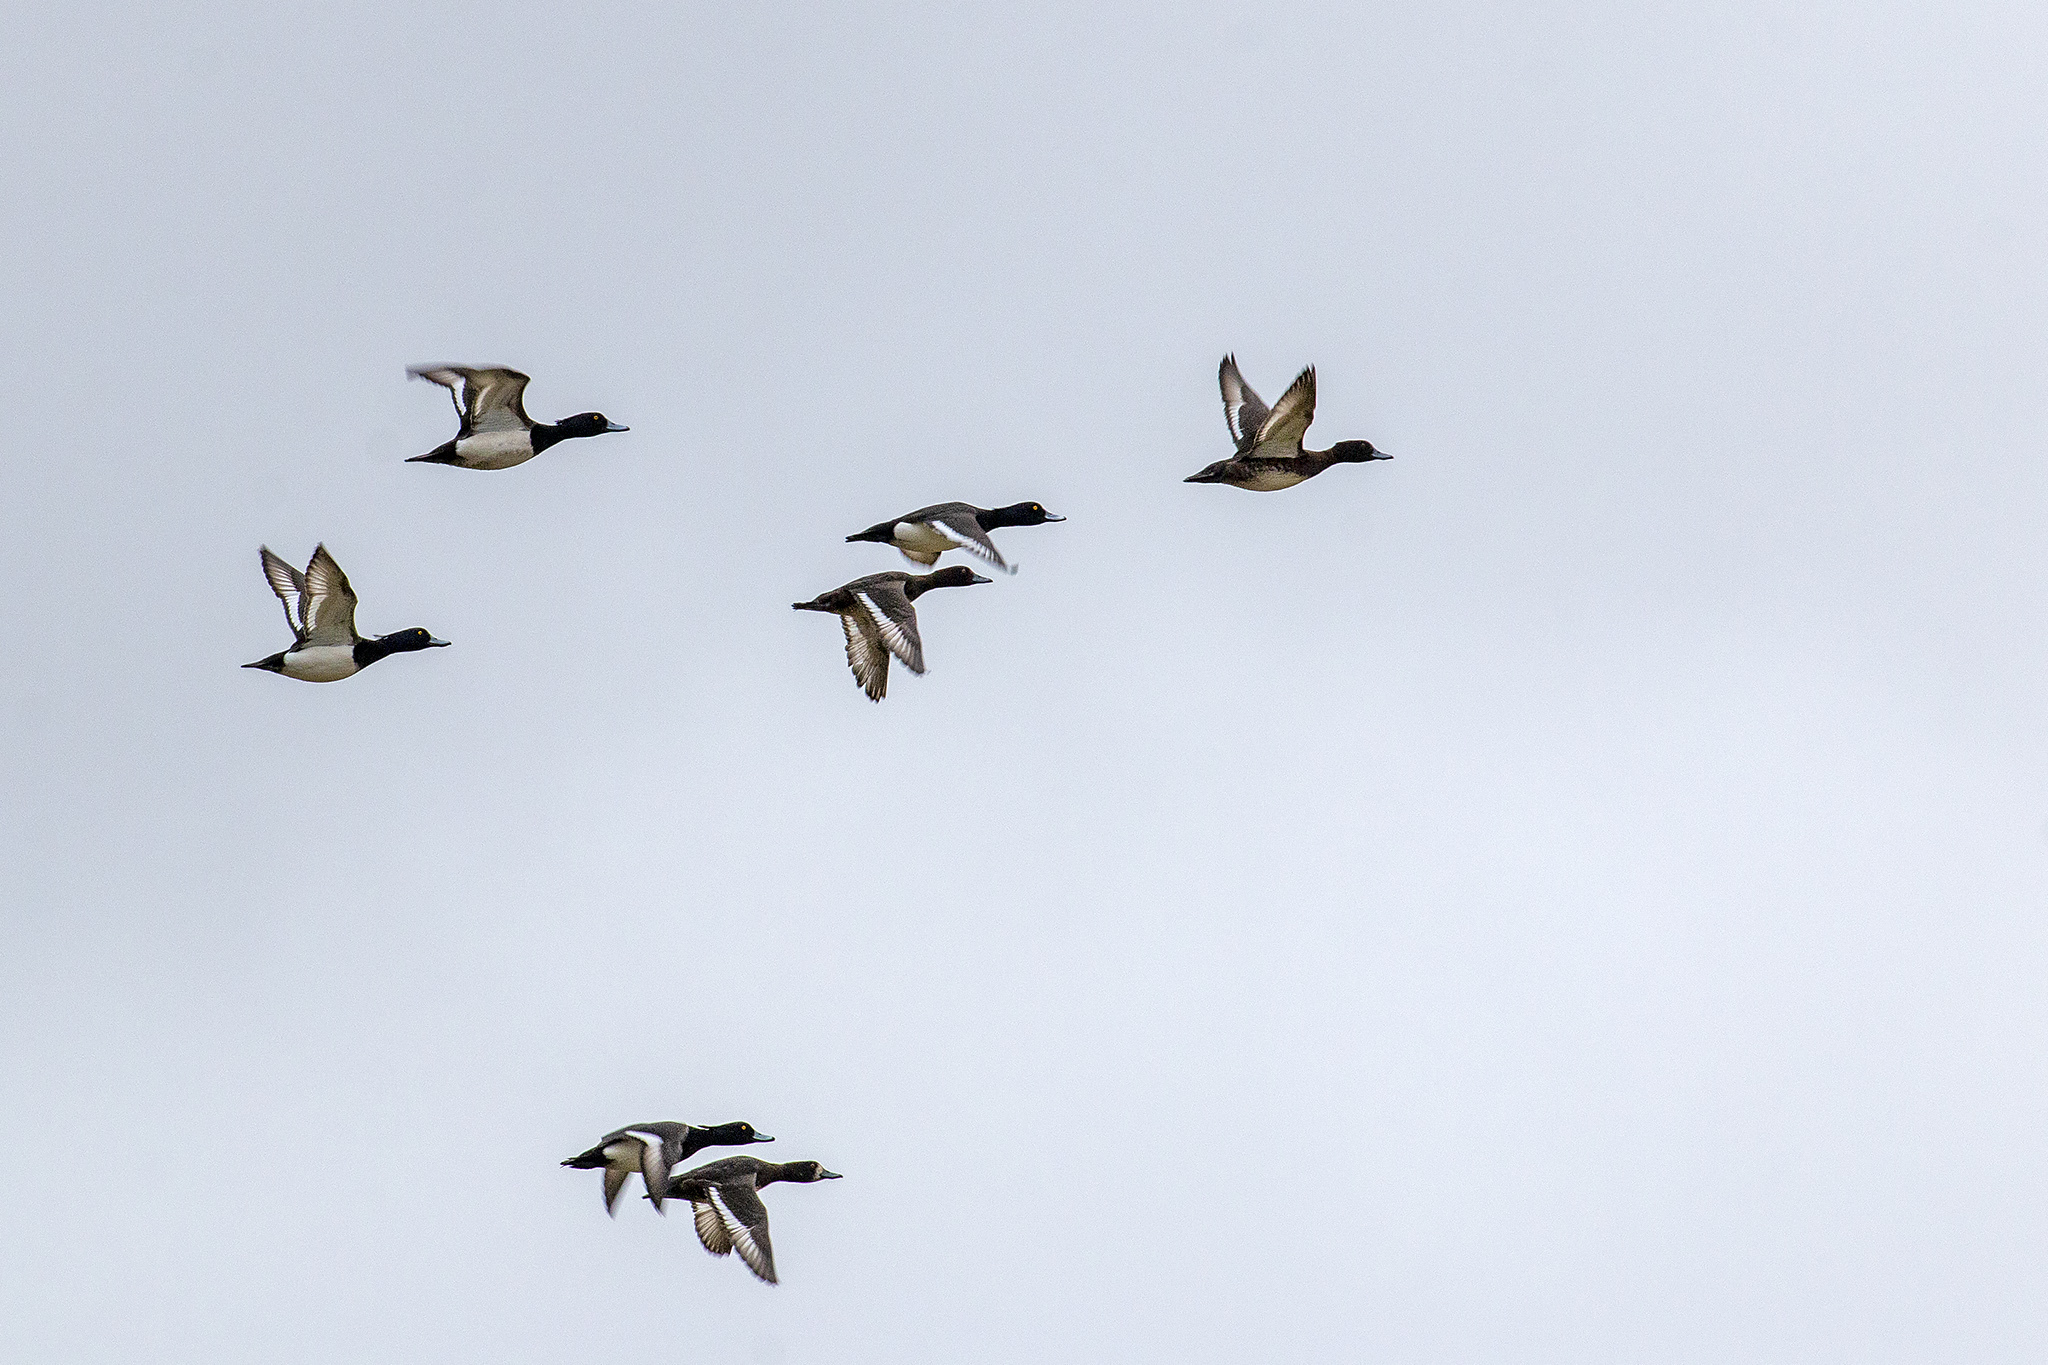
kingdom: Animalia
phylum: Chordata
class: Aves
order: Anseriformes
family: Anatidae
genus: Aythya
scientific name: Aythya fuligula
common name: Tufted duck
